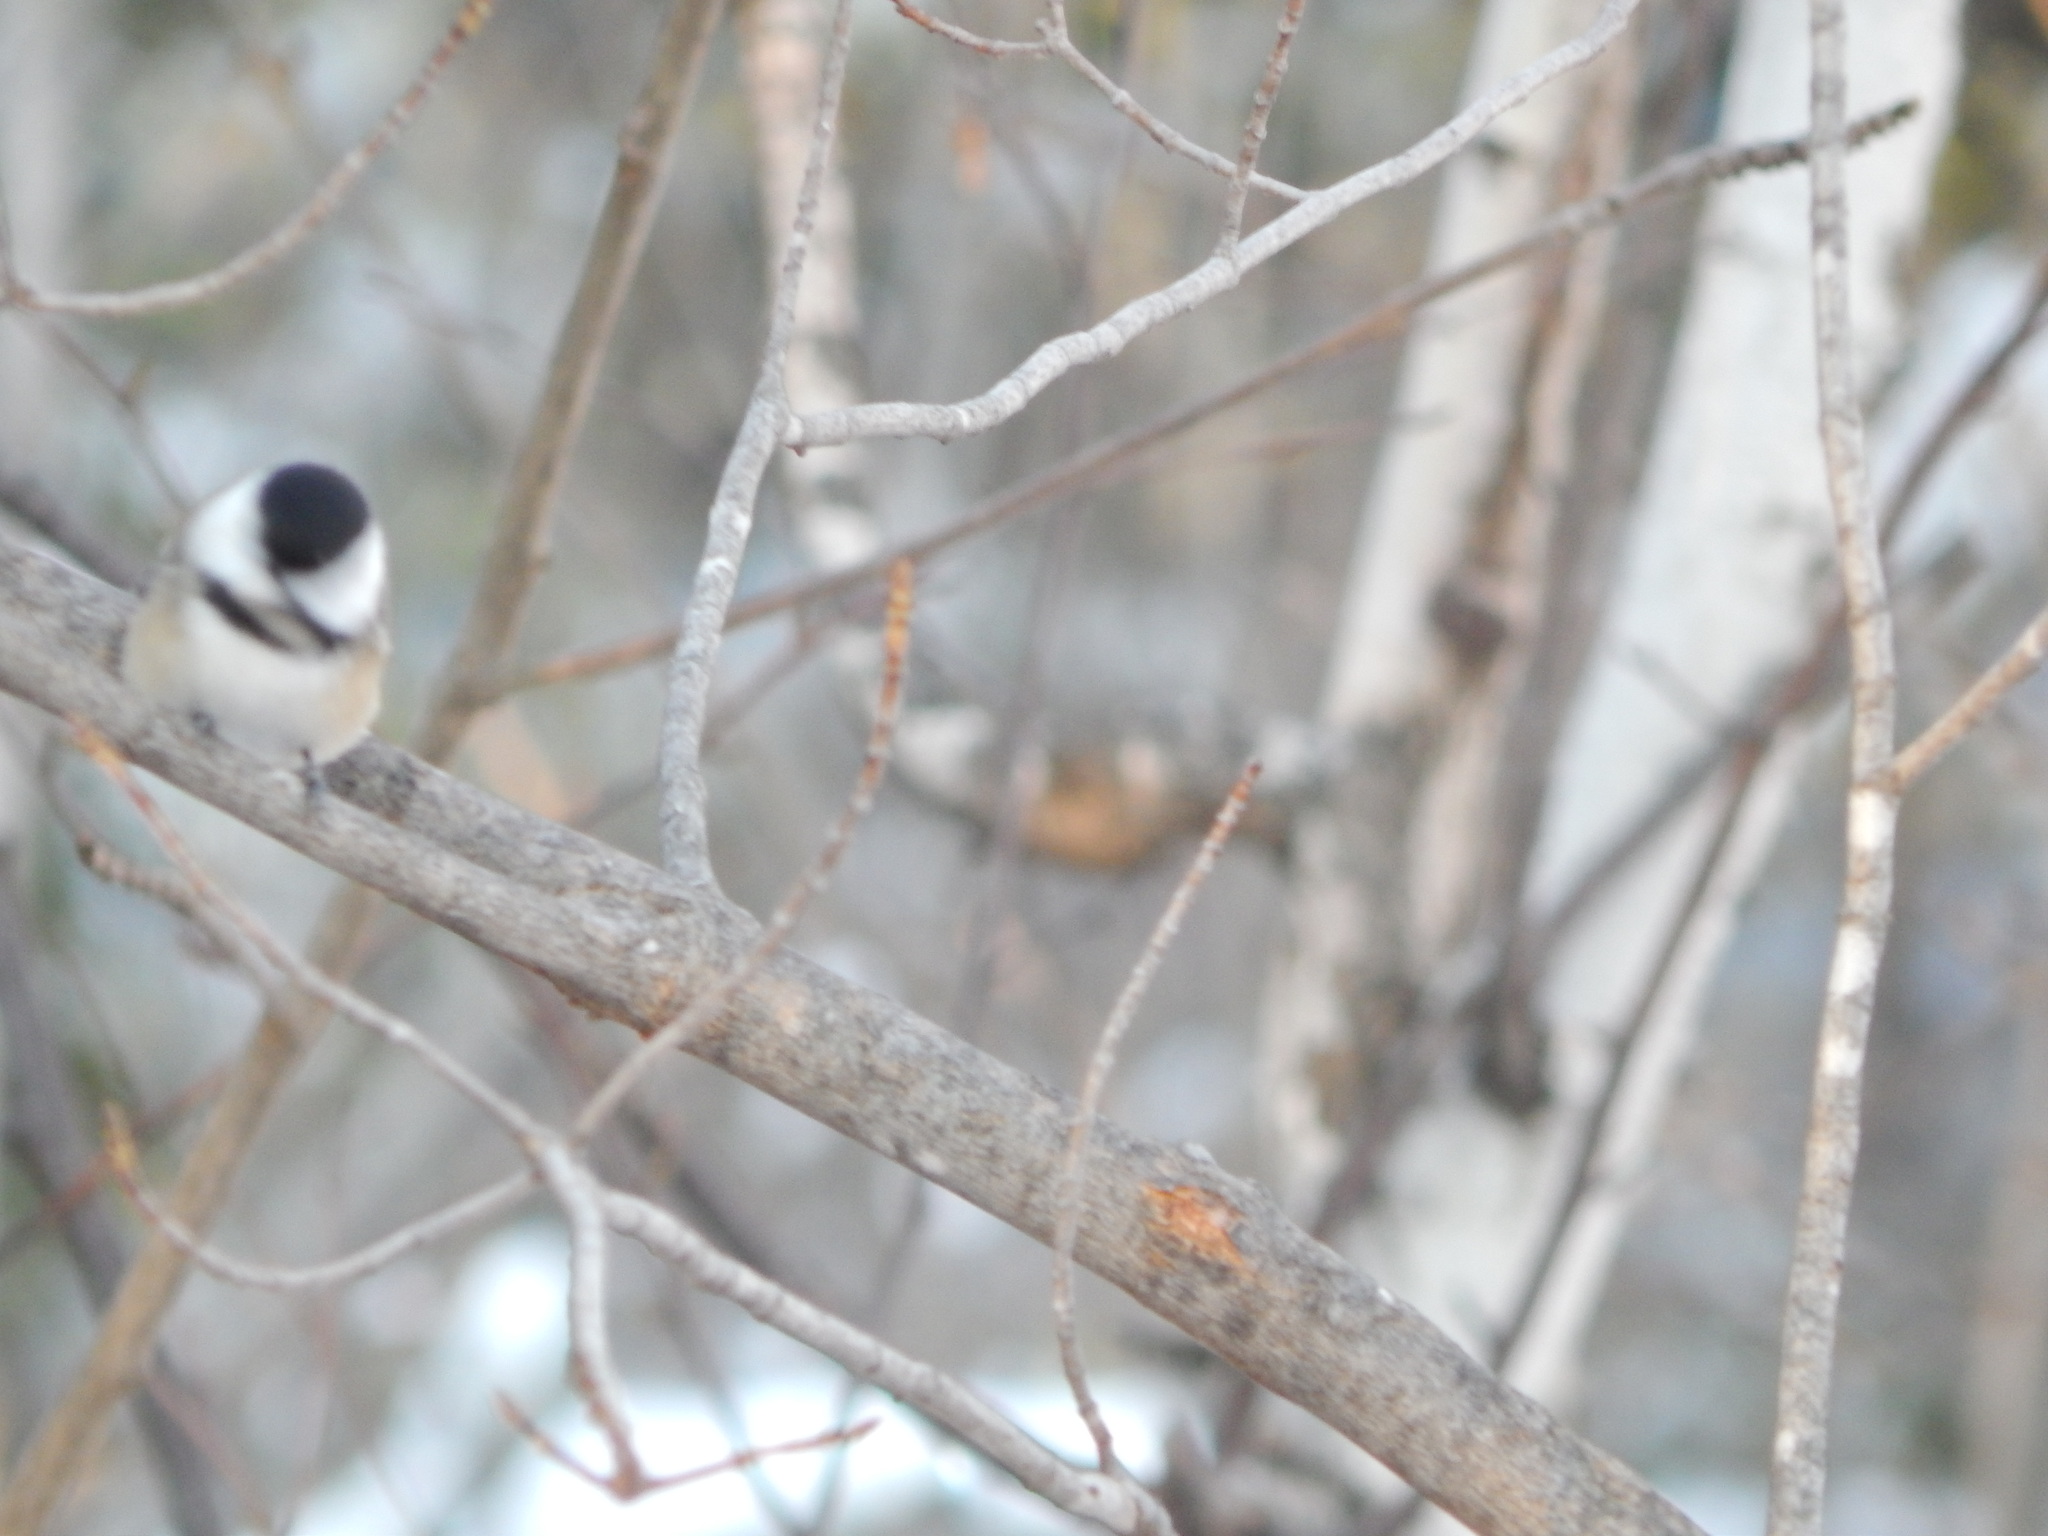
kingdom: Animalia
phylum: Chordata
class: Aves
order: Passeriformes
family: Paridae
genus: Poecile
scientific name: Poecile atricapillus
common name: Black-capped chickadee
